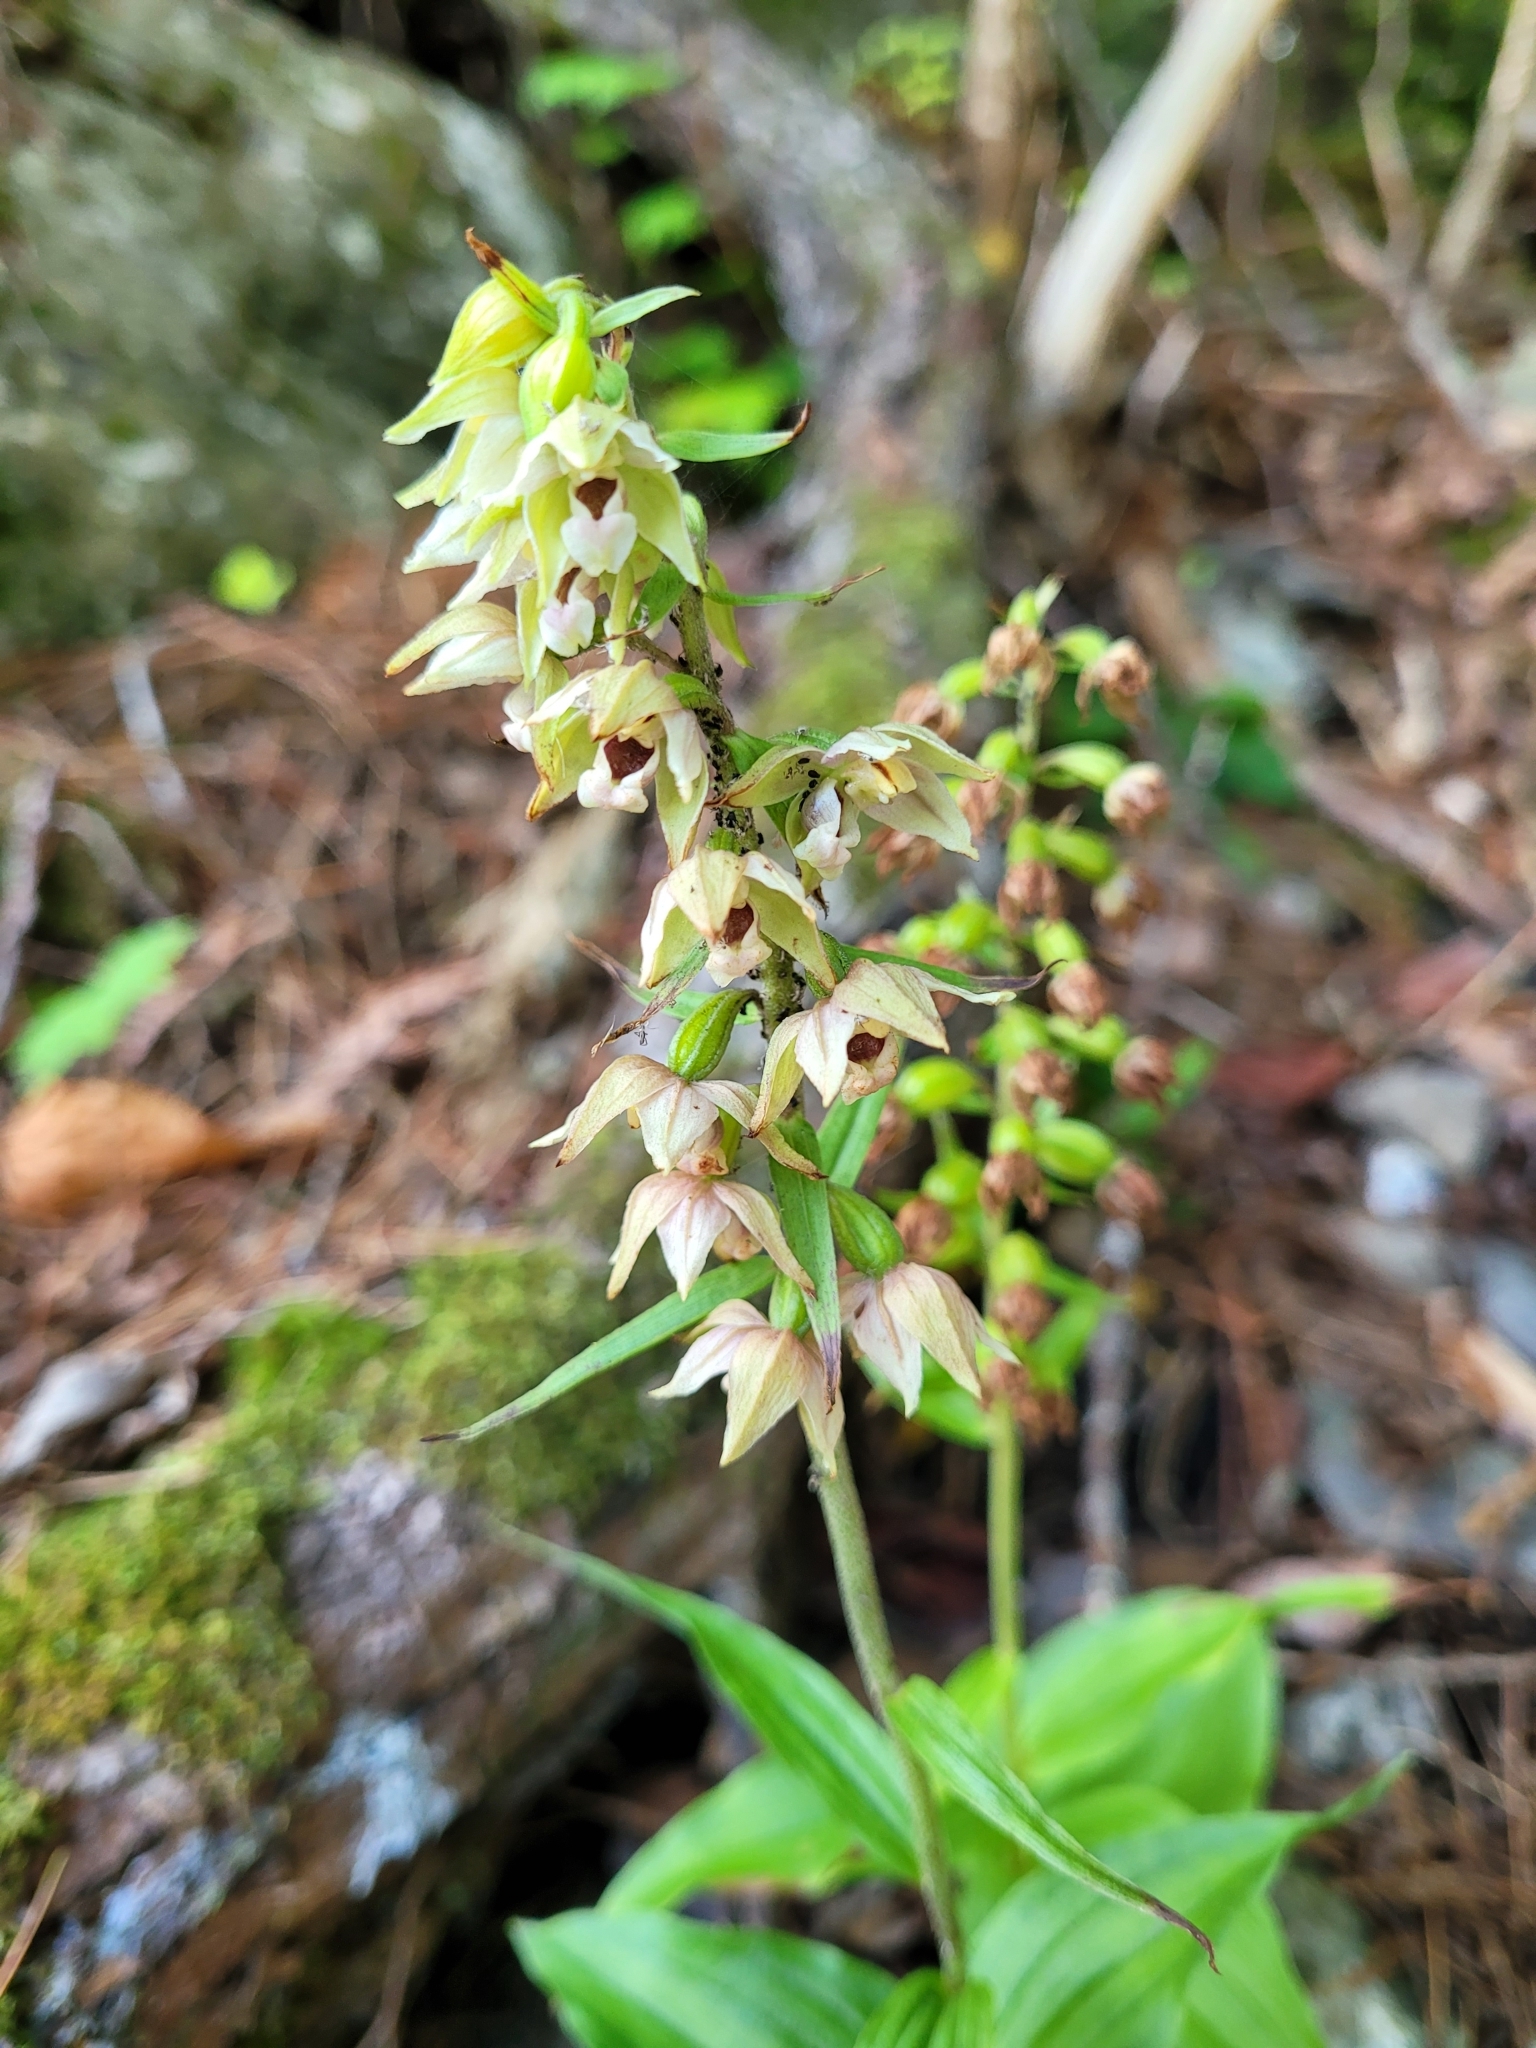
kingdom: Plantae
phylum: Tracheophyta
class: Liliopsida
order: Asparagales
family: Orchidaceae
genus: Epipactis
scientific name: Epipactis helleborine
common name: Broad-leaved helleborine
